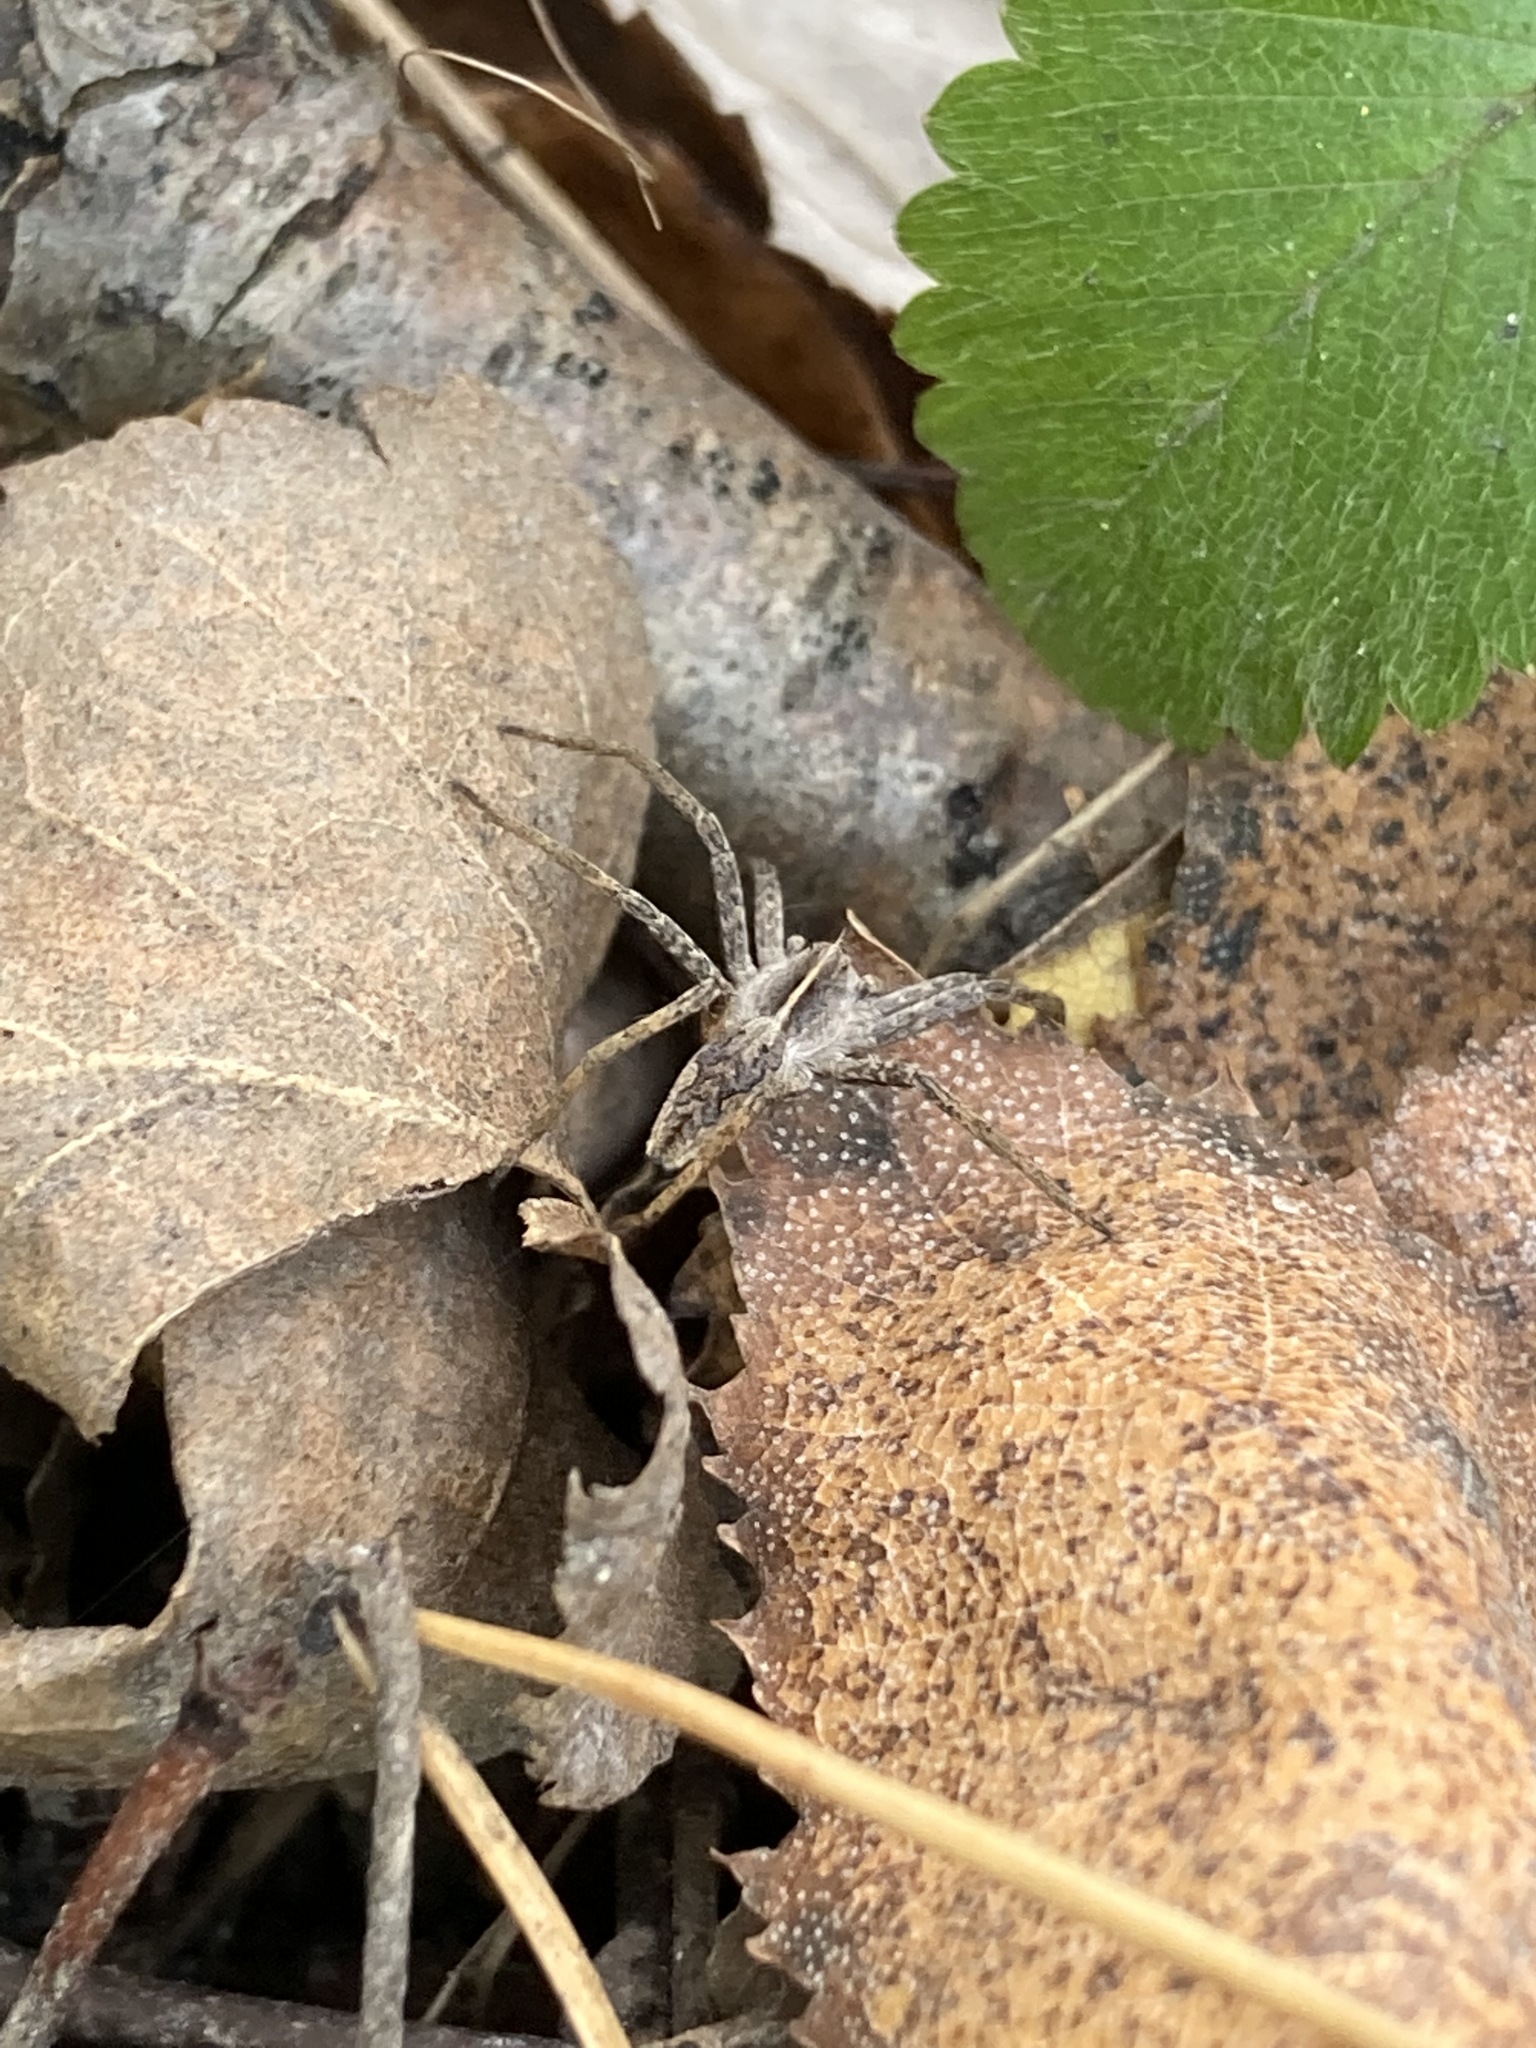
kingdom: Animalia
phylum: Arthropoda
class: Arachnida
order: Araneae
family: Pisauridae
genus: Pisaura
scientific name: Pisaura mirabilis
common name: Tent spider
